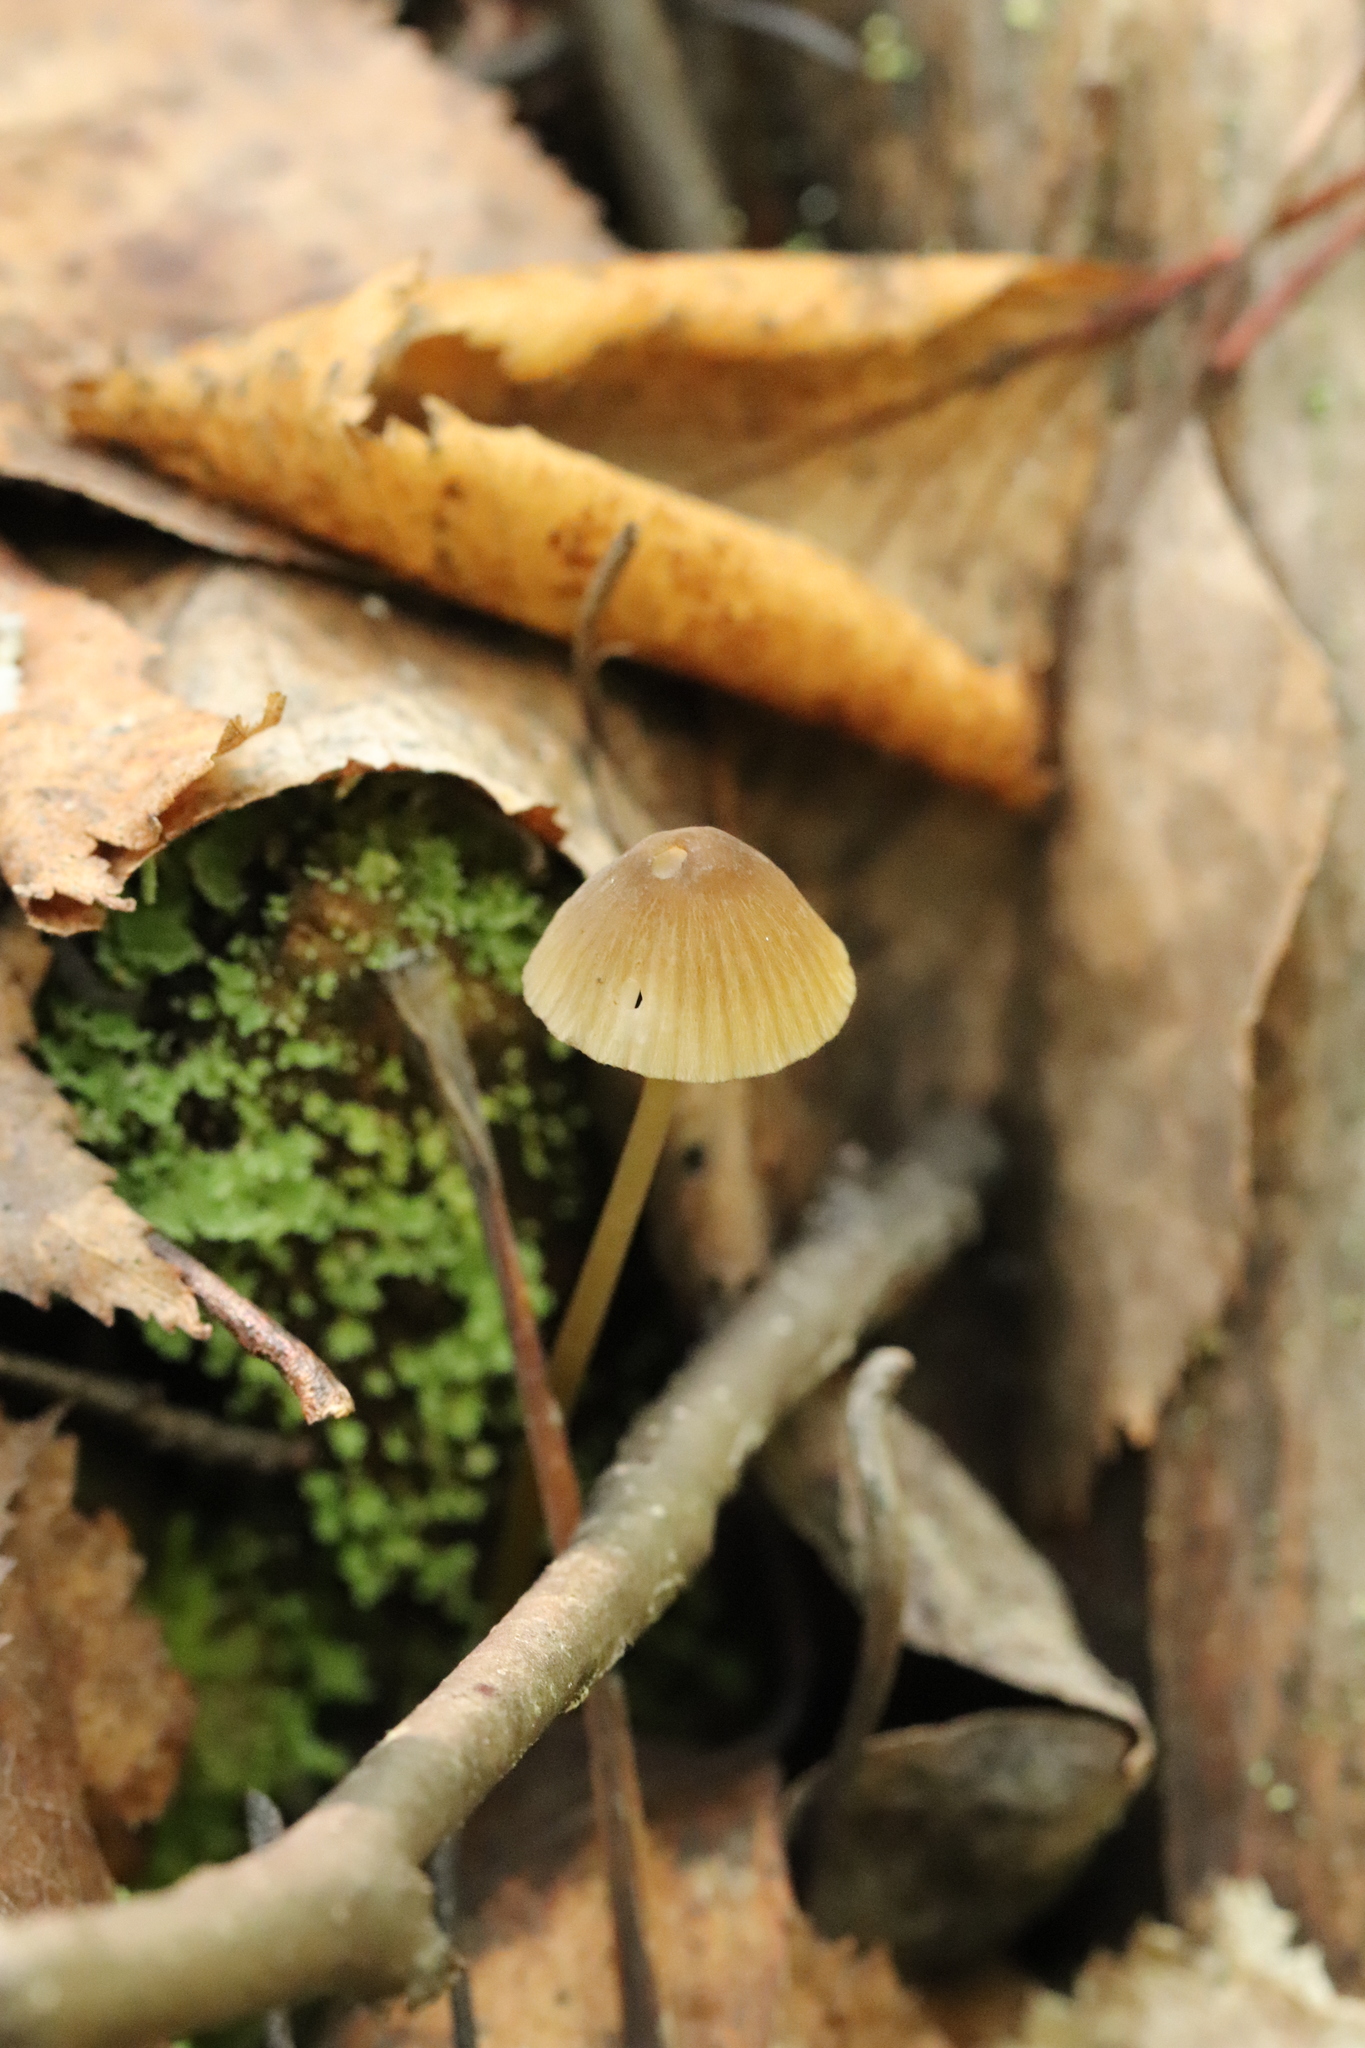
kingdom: Fungi
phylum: Basidiomycota
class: Agaricomycetes
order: Agaricales
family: Mycenaceae
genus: Mycena
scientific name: Mycena viridimarginata
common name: Olive edge bonnet
